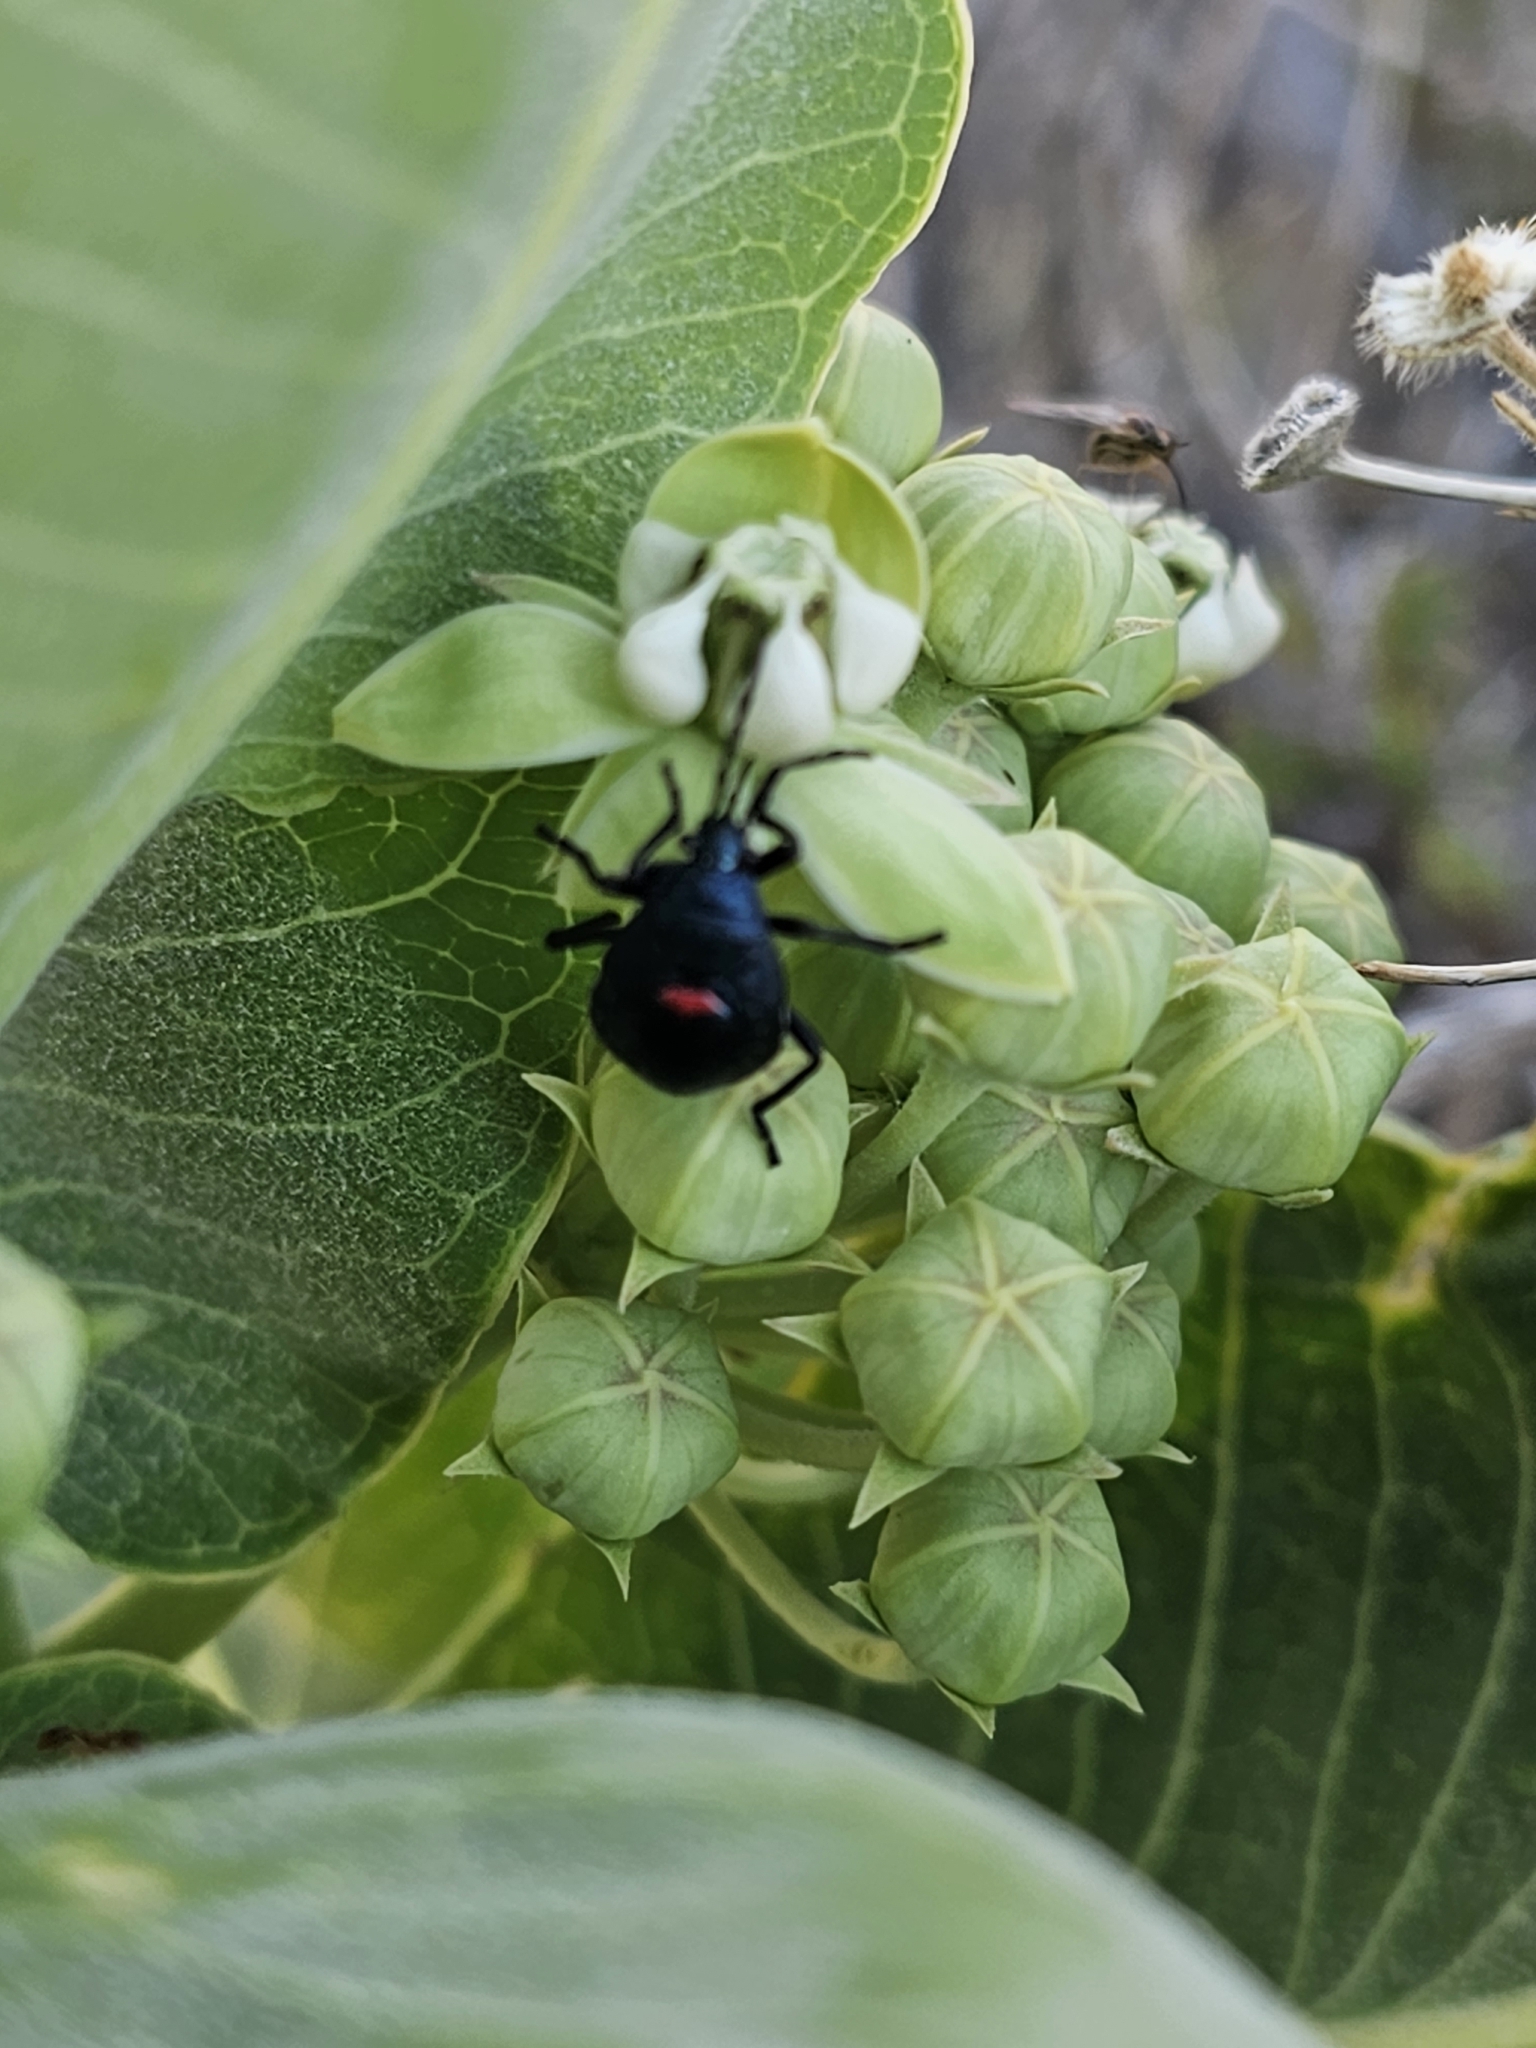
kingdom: Animalia
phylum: Arthropoda
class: Insecta
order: Hemiptera
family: Pentatomidae
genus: Chlorochroa
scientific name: Chlorochroa ligata
